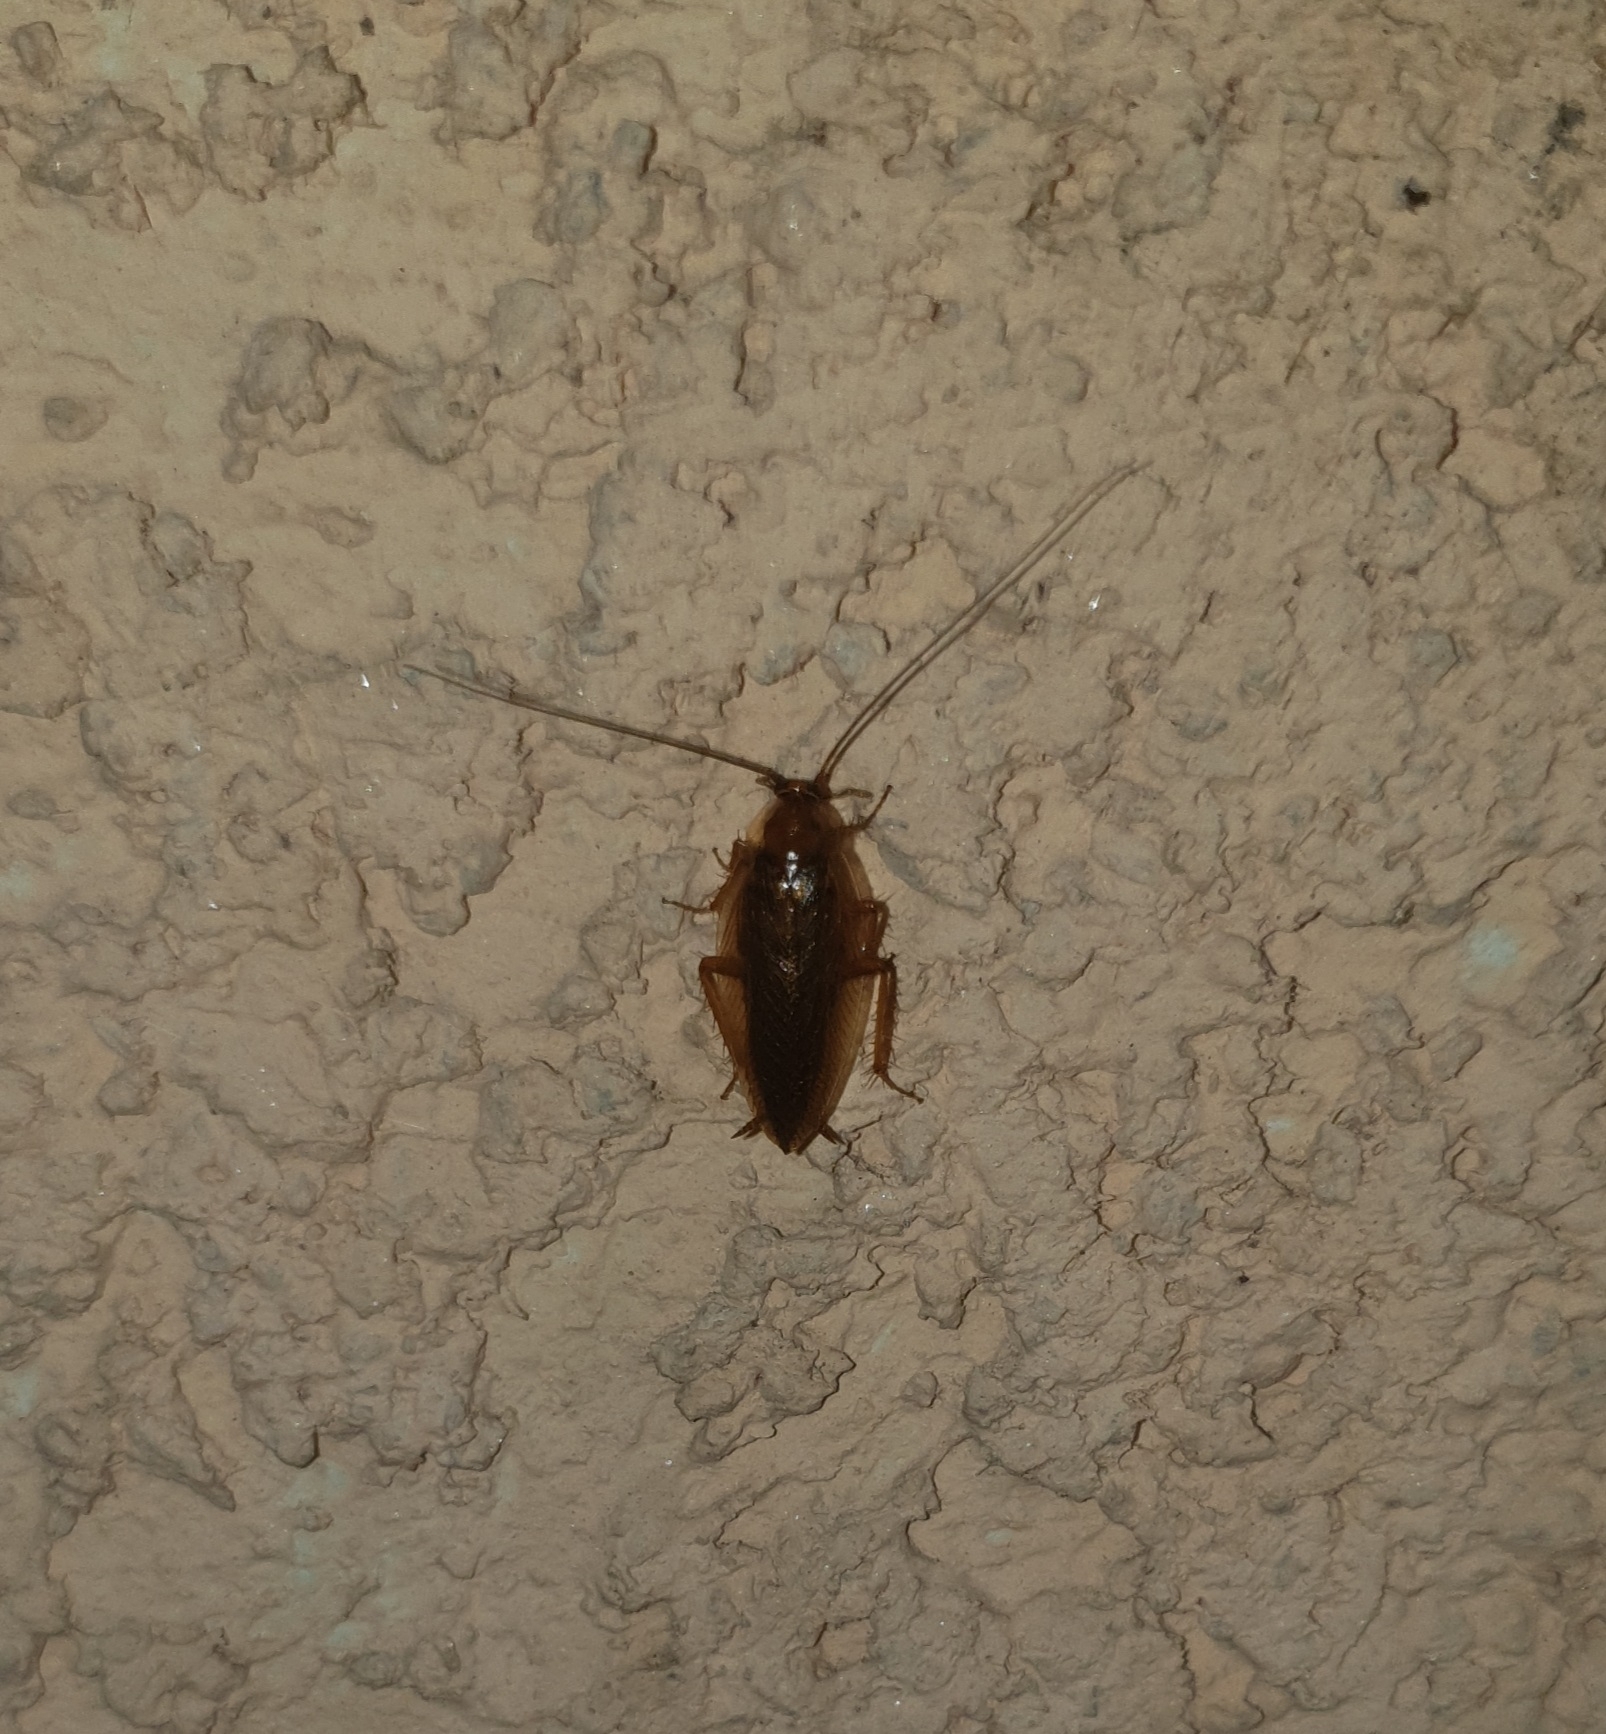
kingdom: Animalia
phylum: Arthropoda
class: Insecta
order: Blattodea
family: Ectobiidae
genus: Ectobius
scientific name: Ectobius vittiventris
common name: Garden cockroach
